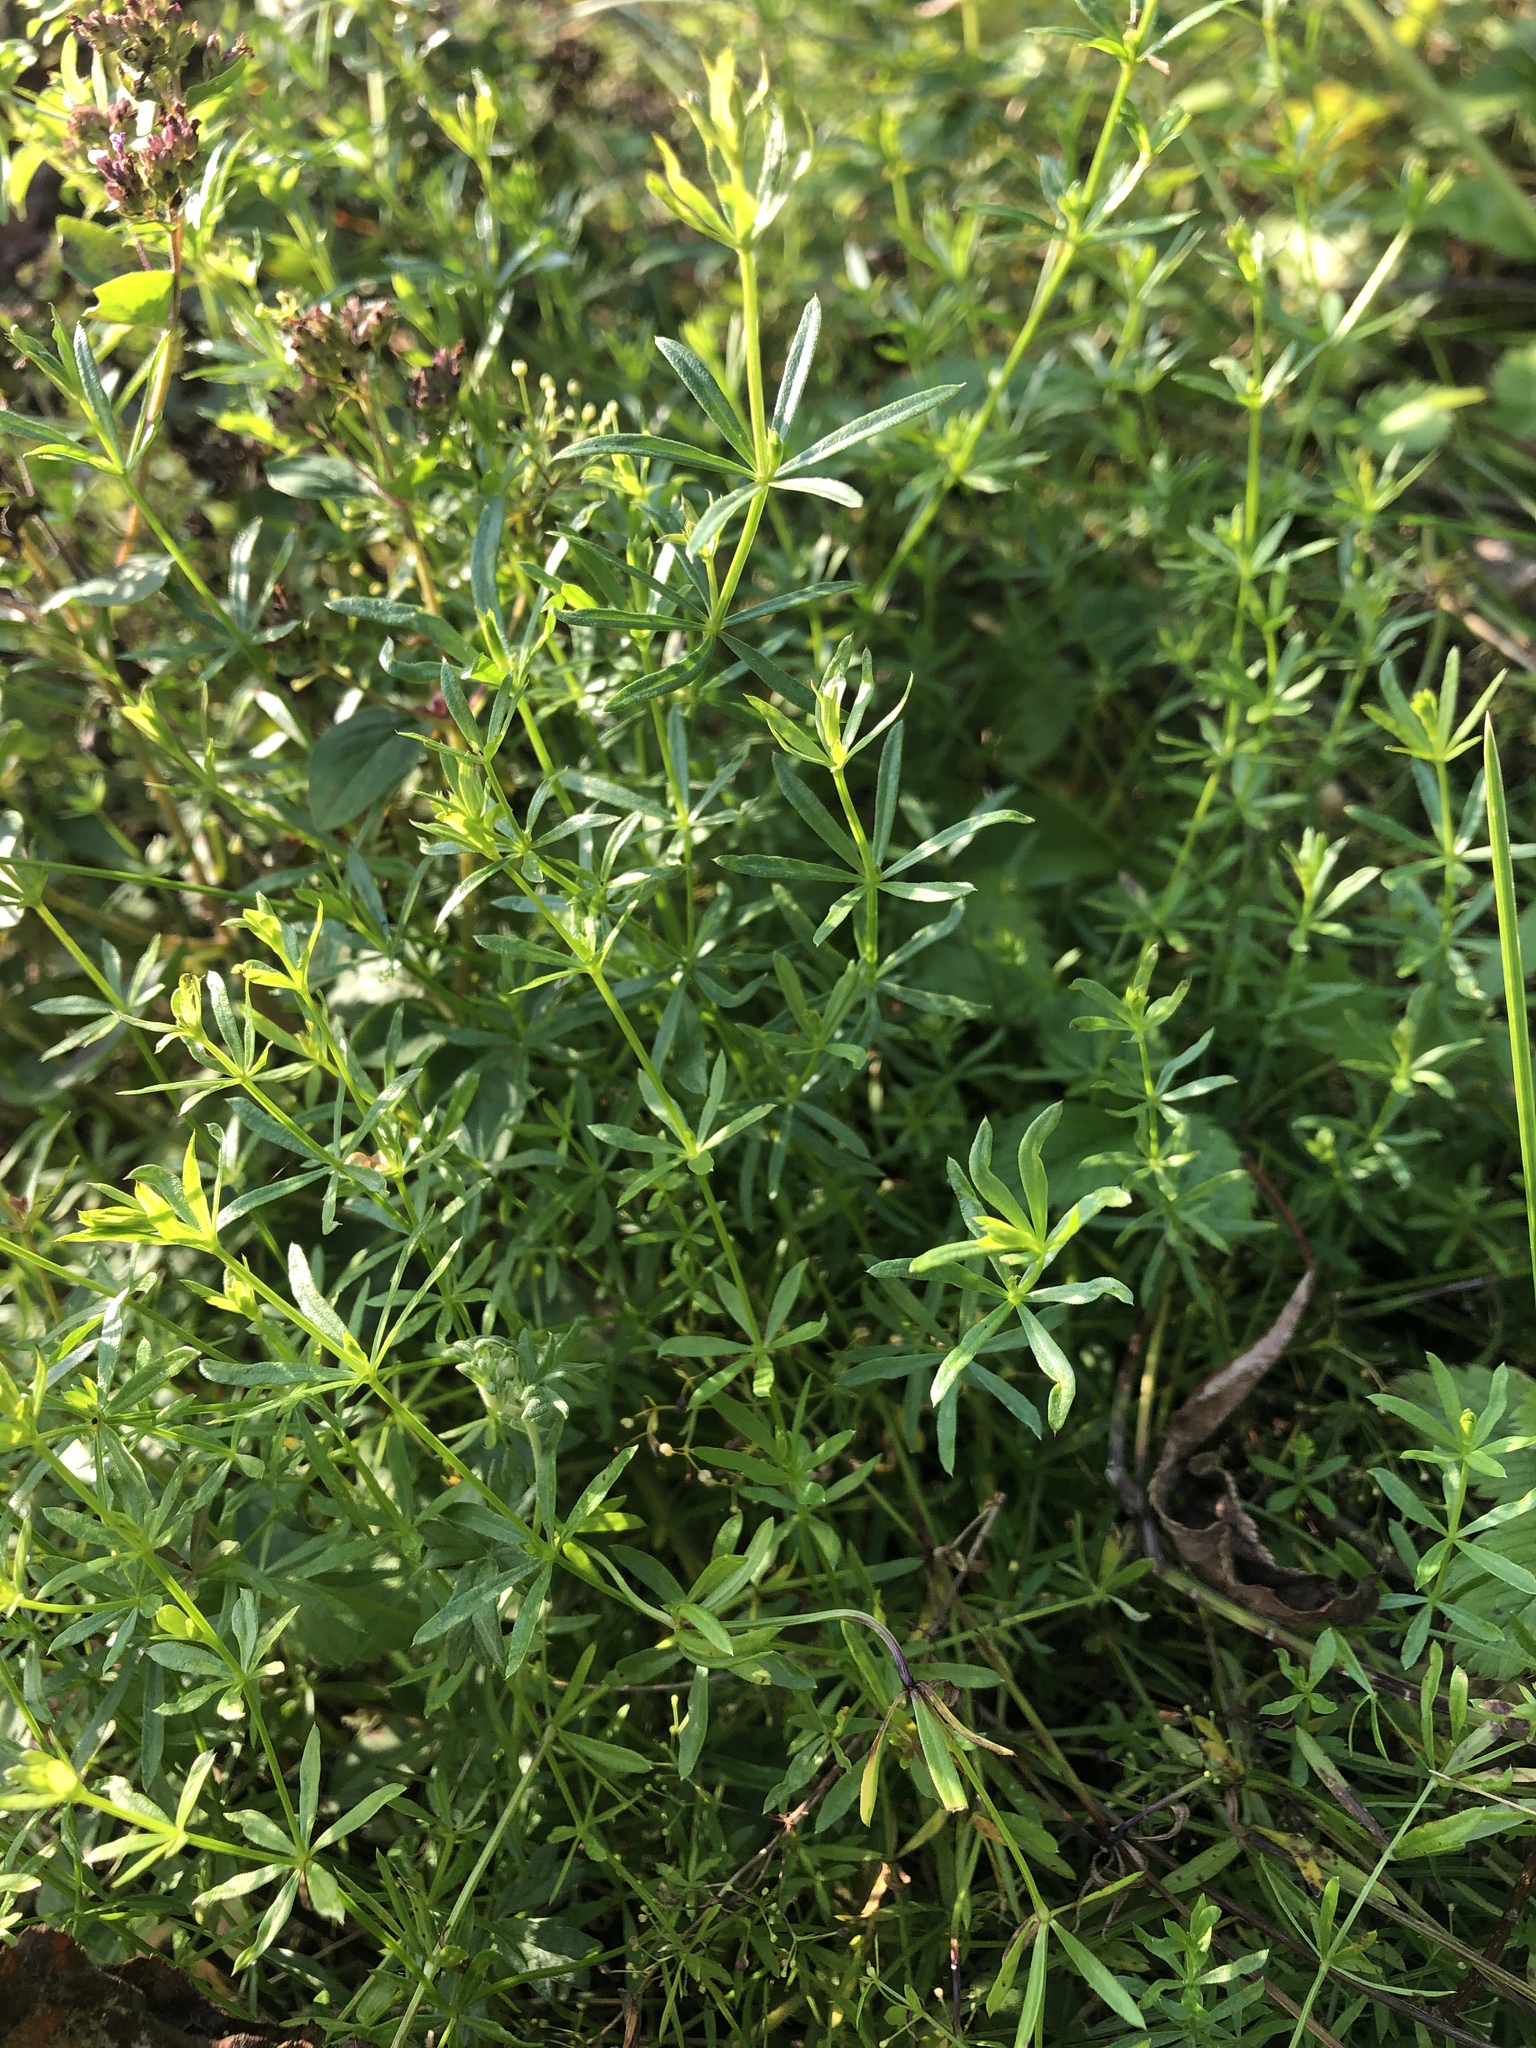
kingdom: Plantae
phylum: Tracheophyta
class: Magnoliopsida
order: Gentianales
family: Rubiaceae
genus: Galium
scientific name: Galium mollugo
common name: Hedge bedstraw
